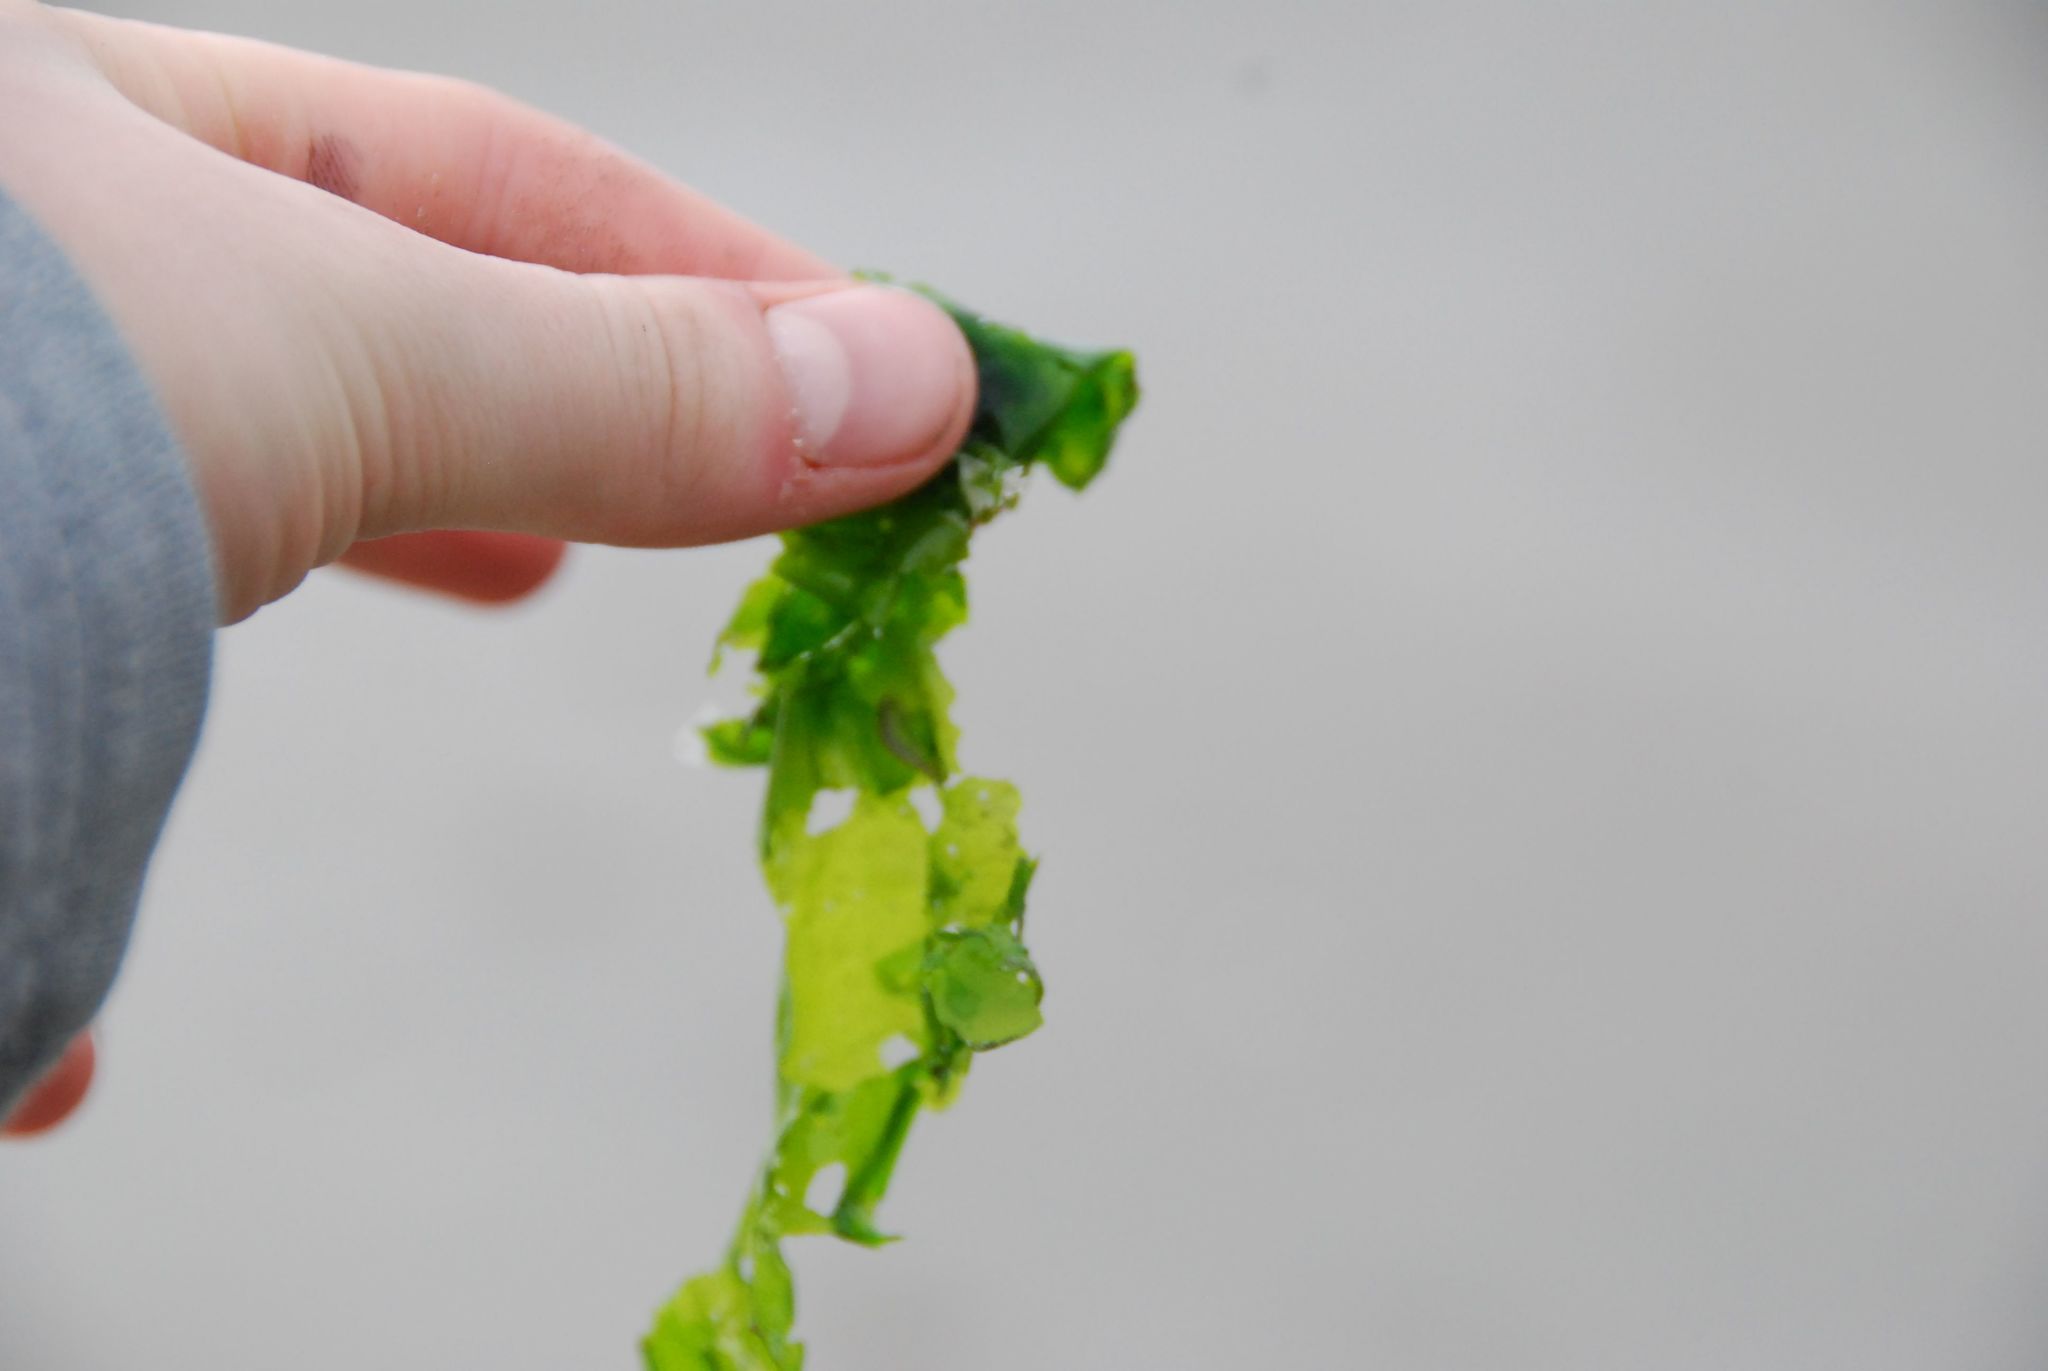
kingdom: Plantae
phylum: Chlorophyta
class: Ulvophyceae
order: Ulvales
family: Ulvaceae
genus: Ulva
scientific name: Ulva lactuca
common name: Sea lettuce
